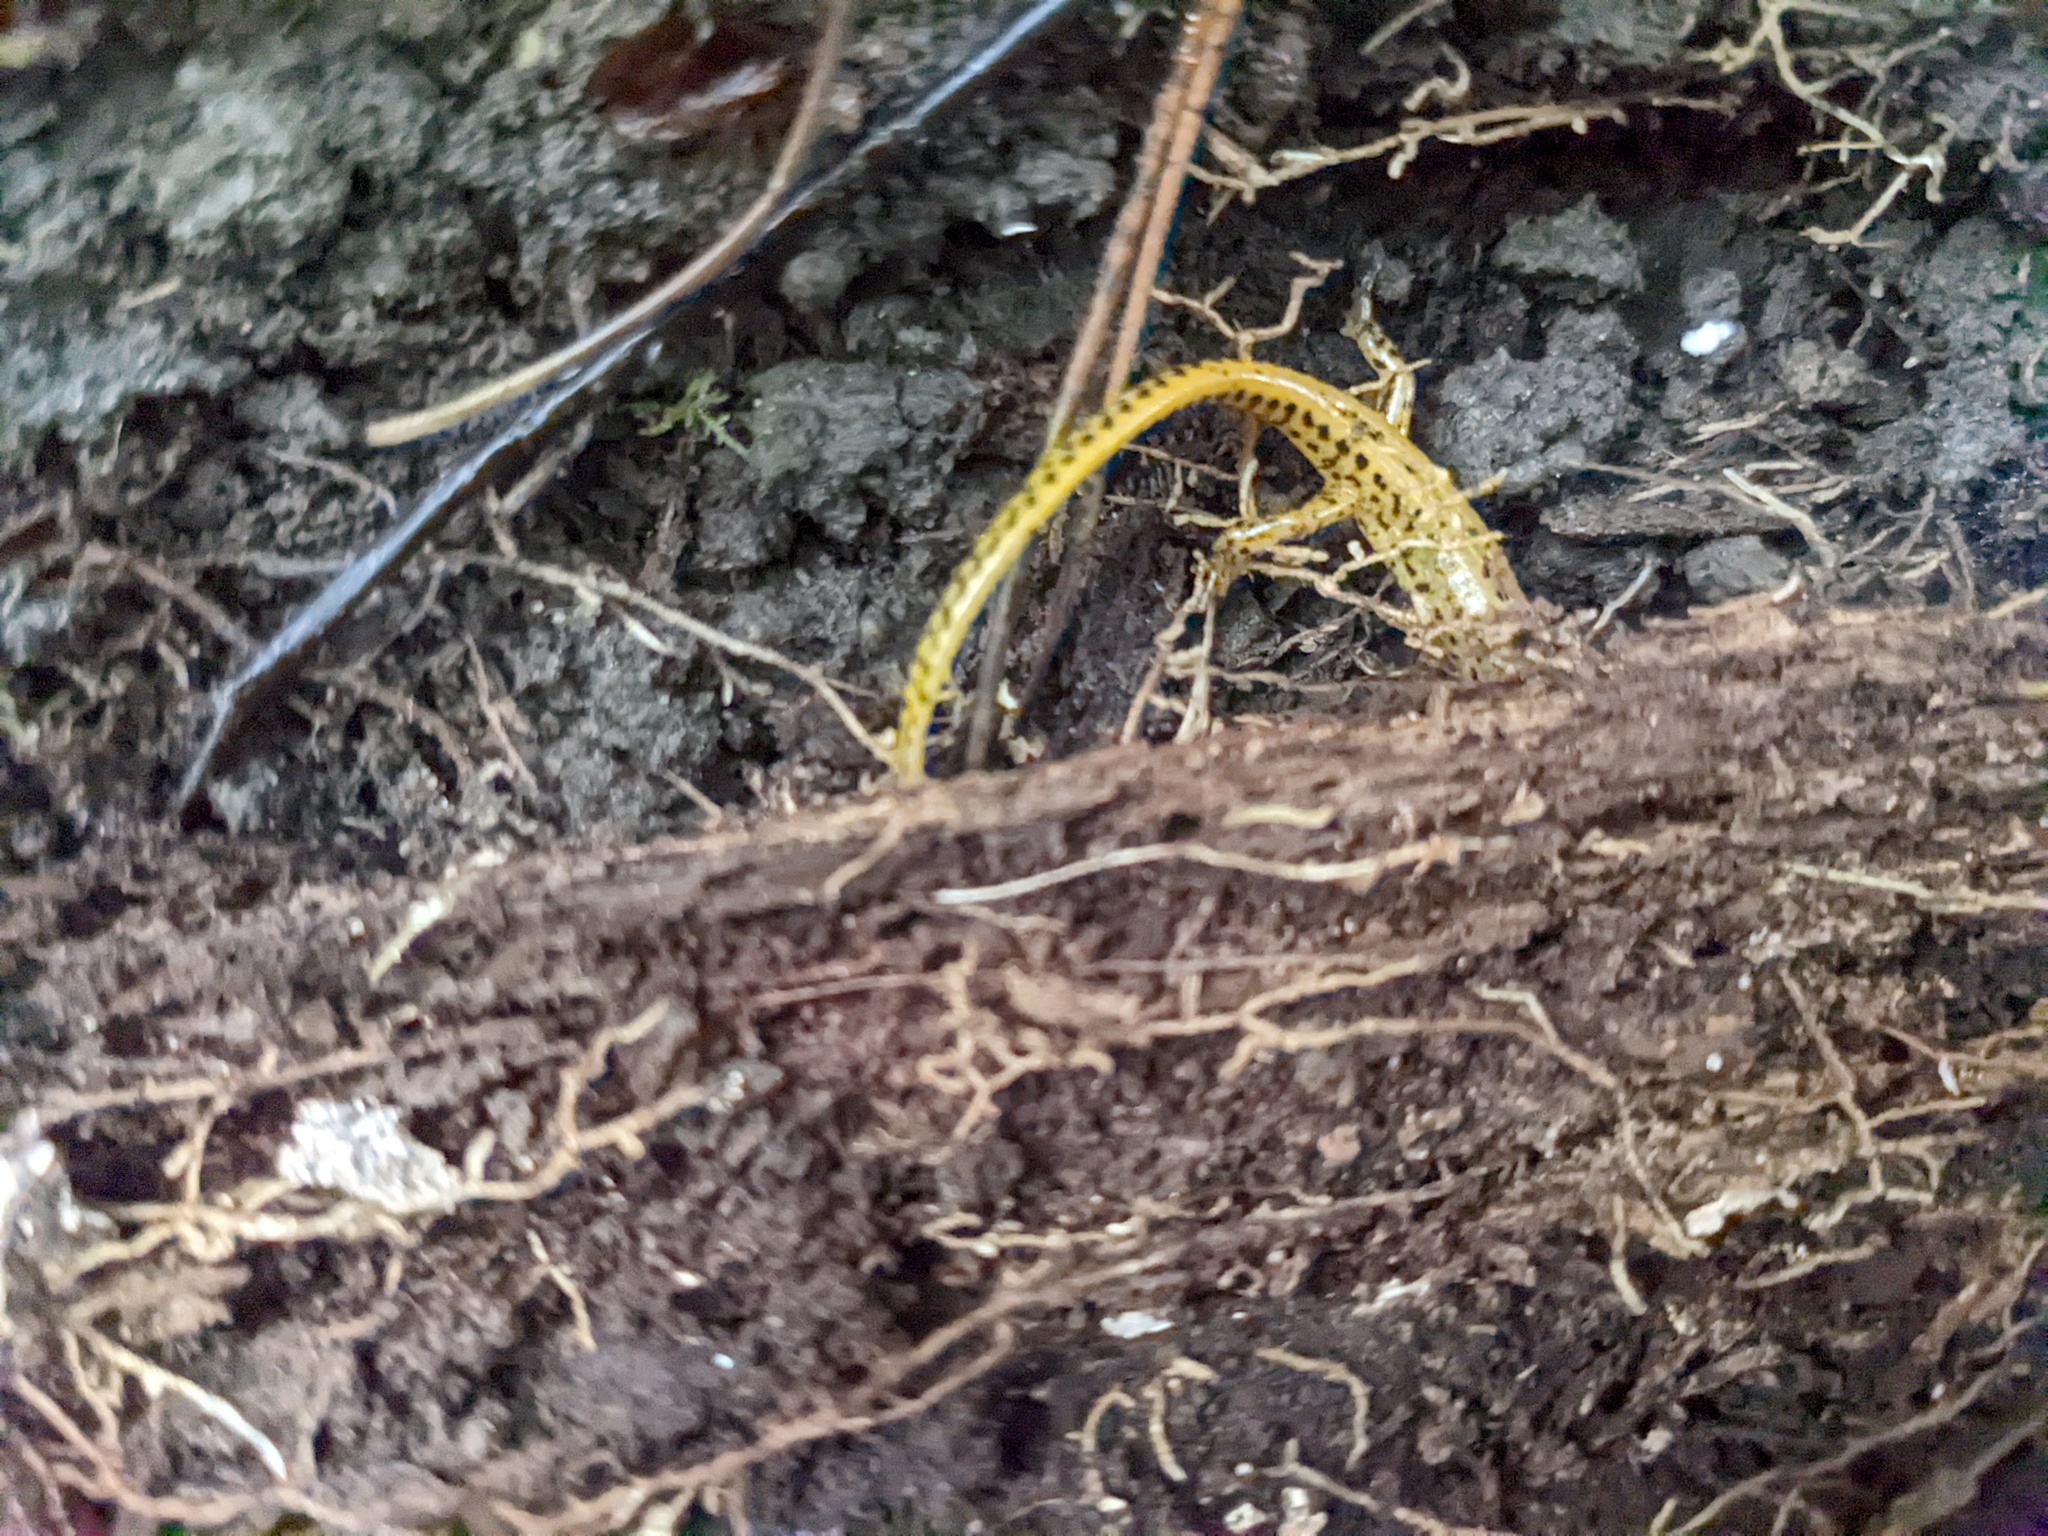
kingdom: Animalia
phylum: Chordata
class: Amphibia
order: Caudata
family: Plethodontidae
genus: Eurycea
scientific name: Eurycea longicauda
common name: Long-tailed salamander
